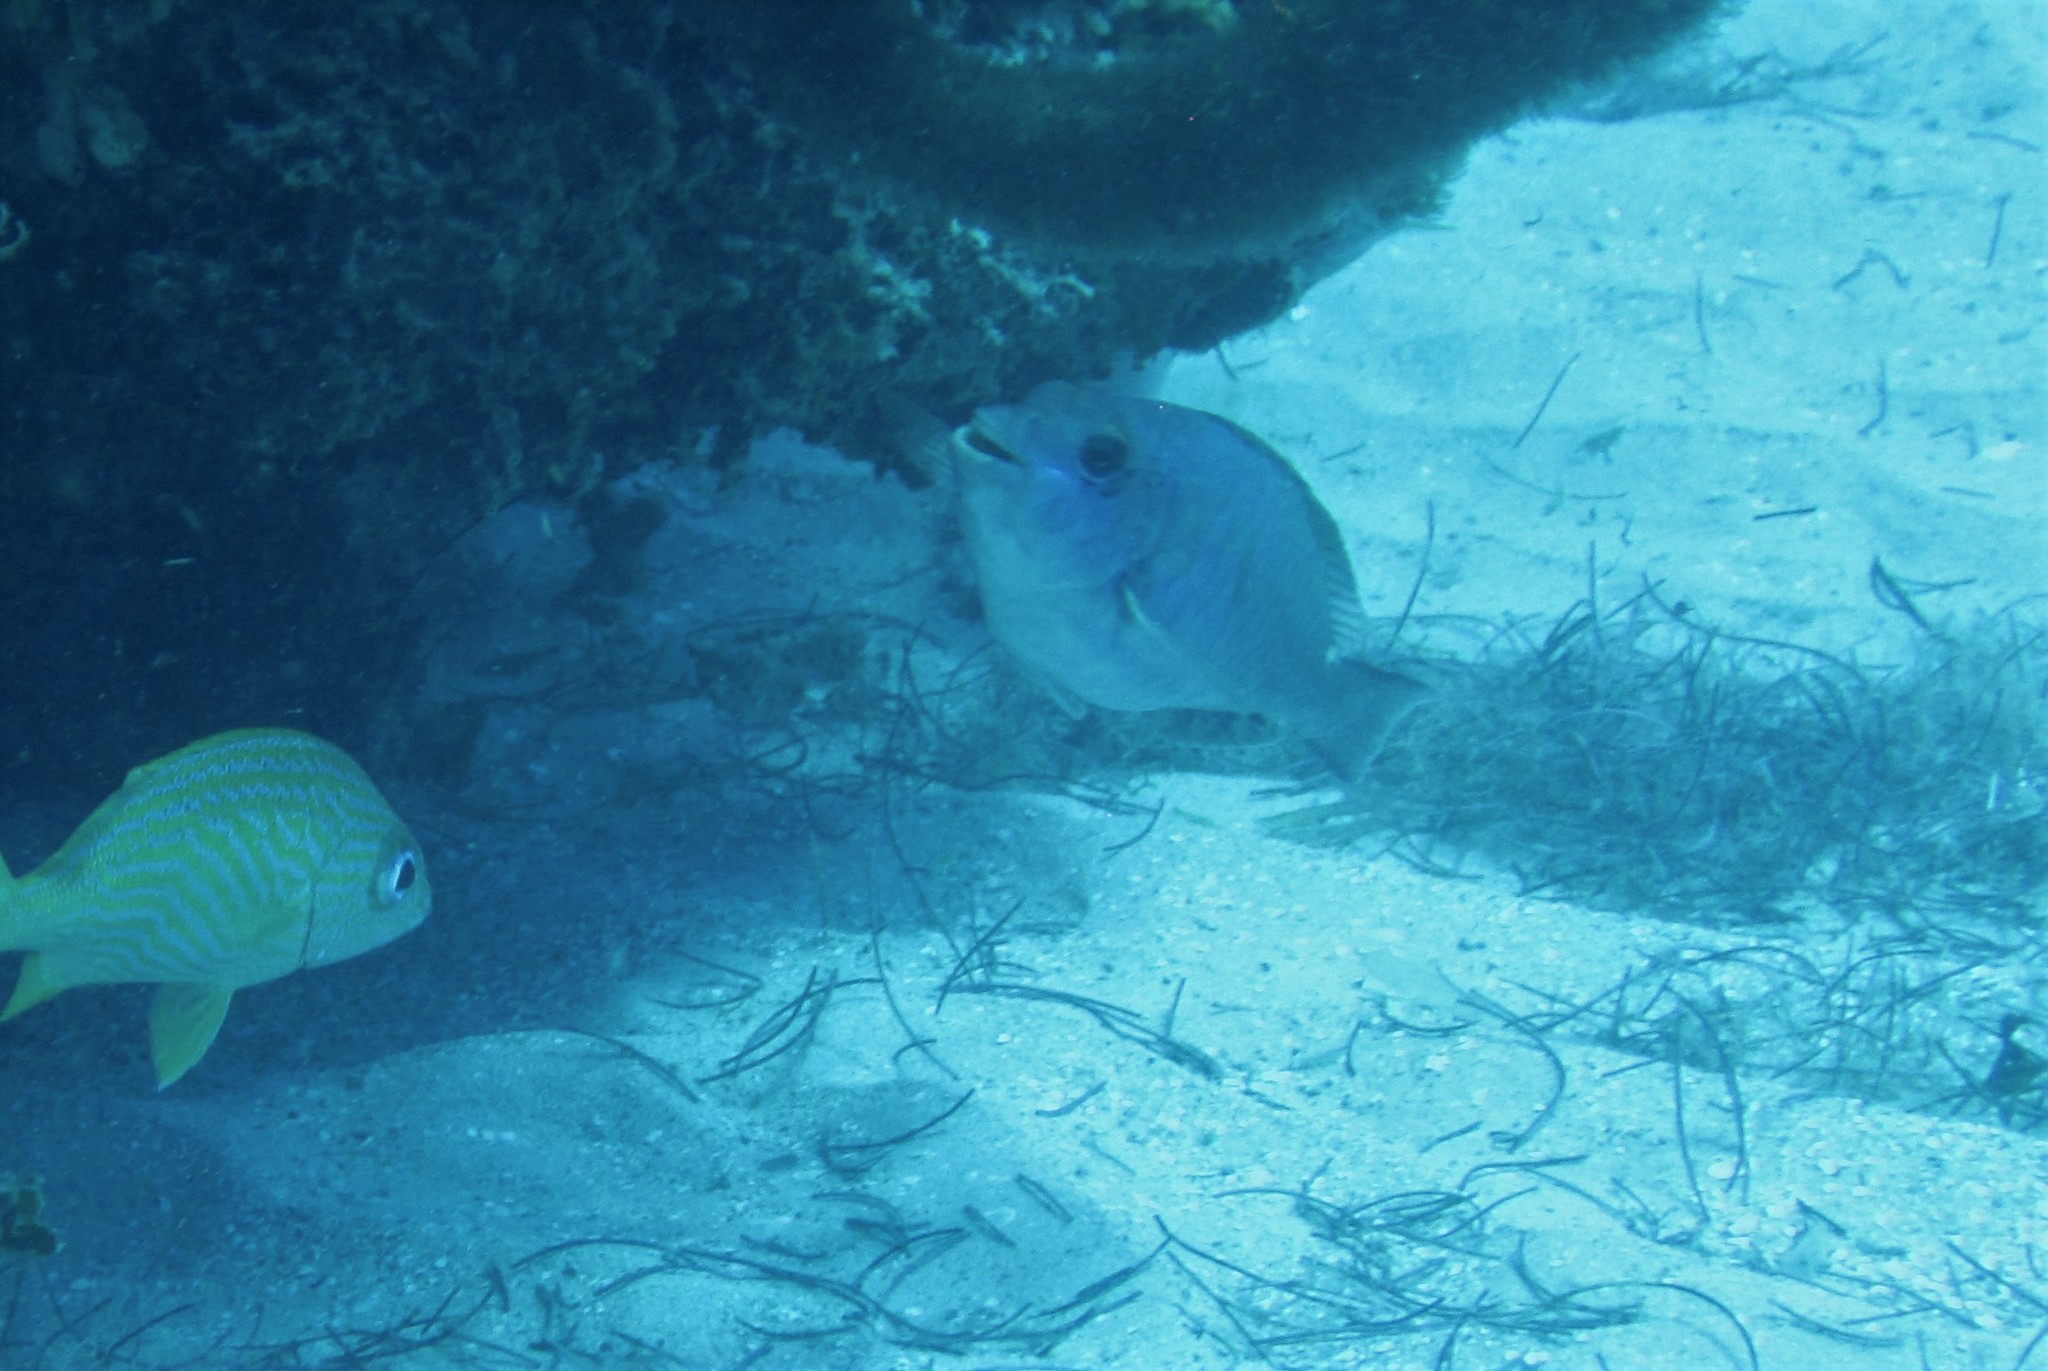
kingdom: Animalia
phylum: Chordata
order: Perciformes
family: Scaridae
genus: Sparisoma
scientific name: Sparisoma aurofrenatum
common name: Redband parrotfish
